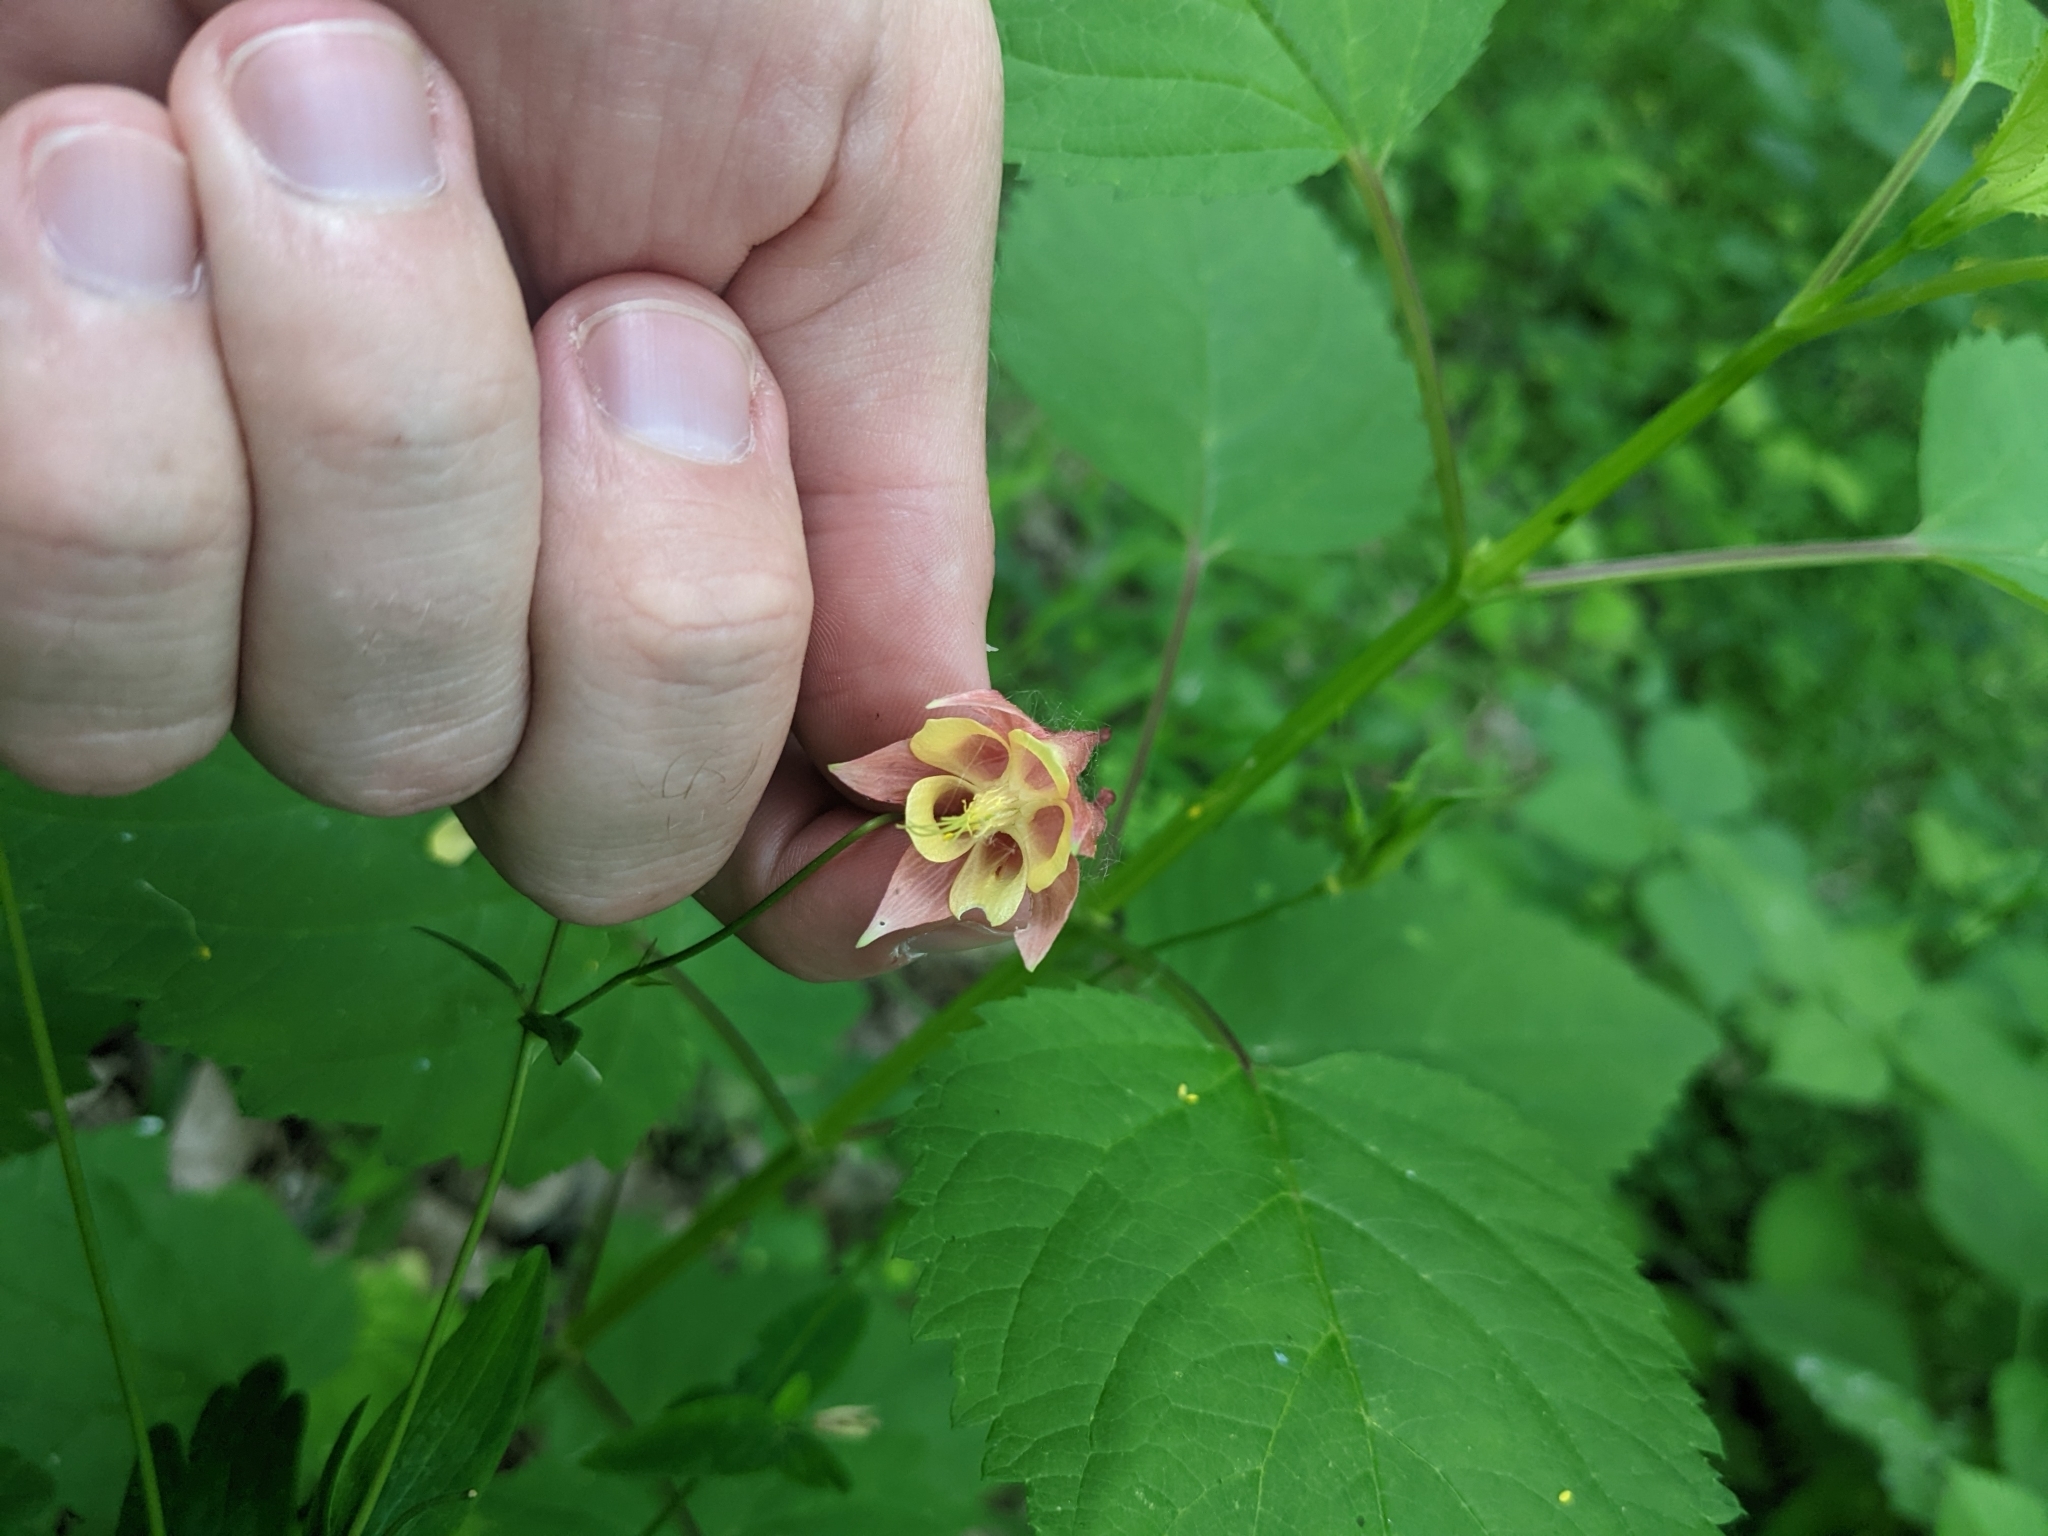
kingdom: Plantae
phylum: Tracheophyta
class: Magnoliopsida
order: Ranunculales
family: Ranunculaceae
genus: Aquilegia
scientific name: Aquilegia canadensis
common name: American columbine
